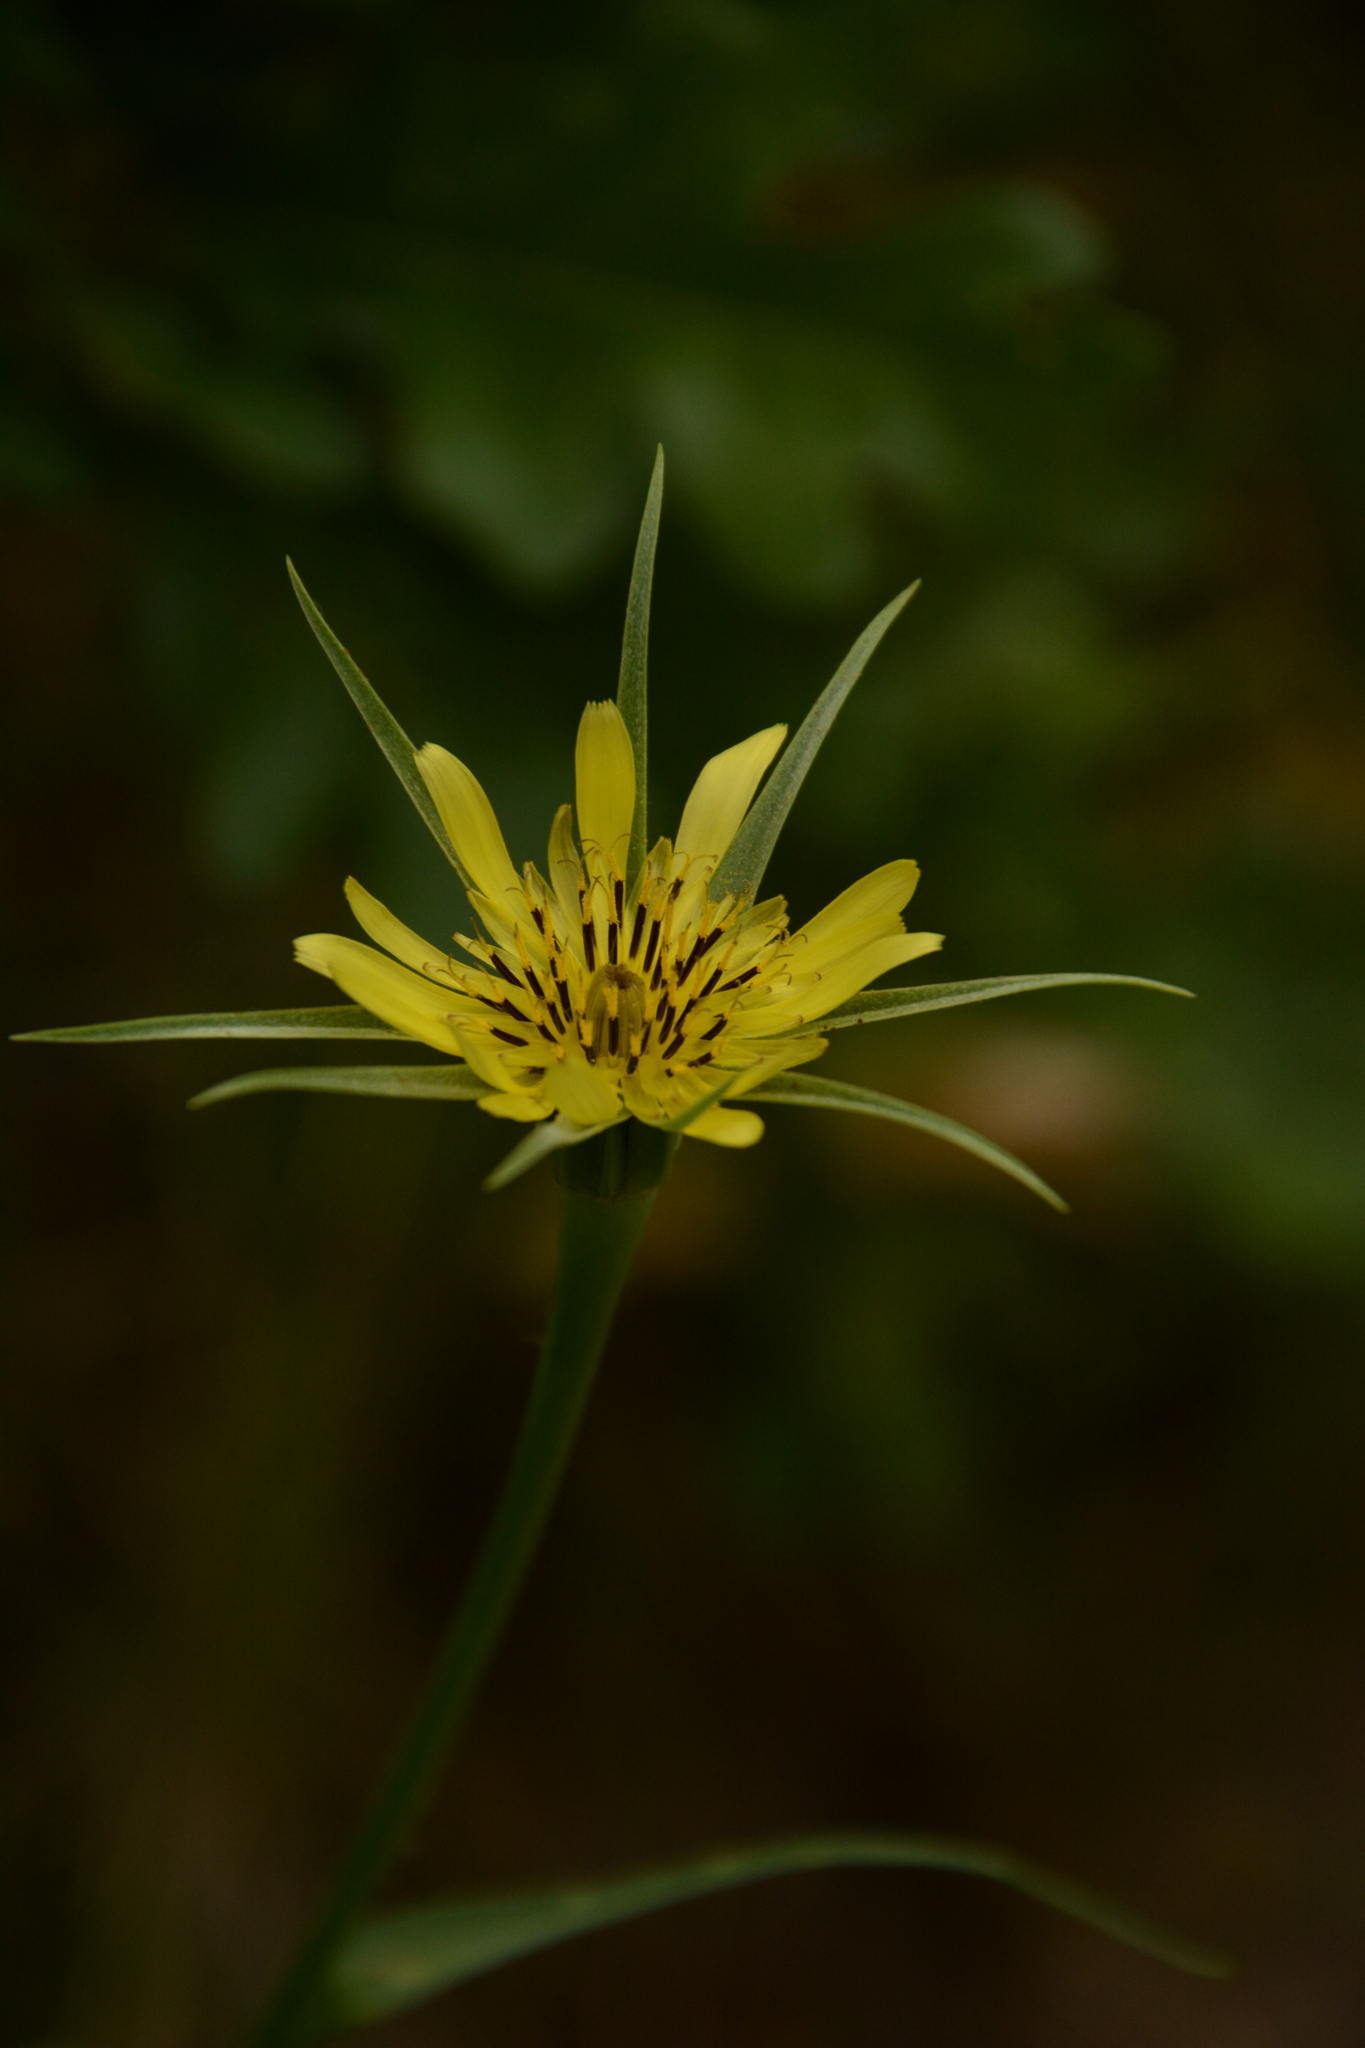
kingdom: Plantae
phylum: Tracheophyta
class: Magnoliopsida
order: Asterales
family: Asteraceae
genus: Tragopogon
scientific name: Tragopogon dubius
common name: Yellow salsify
